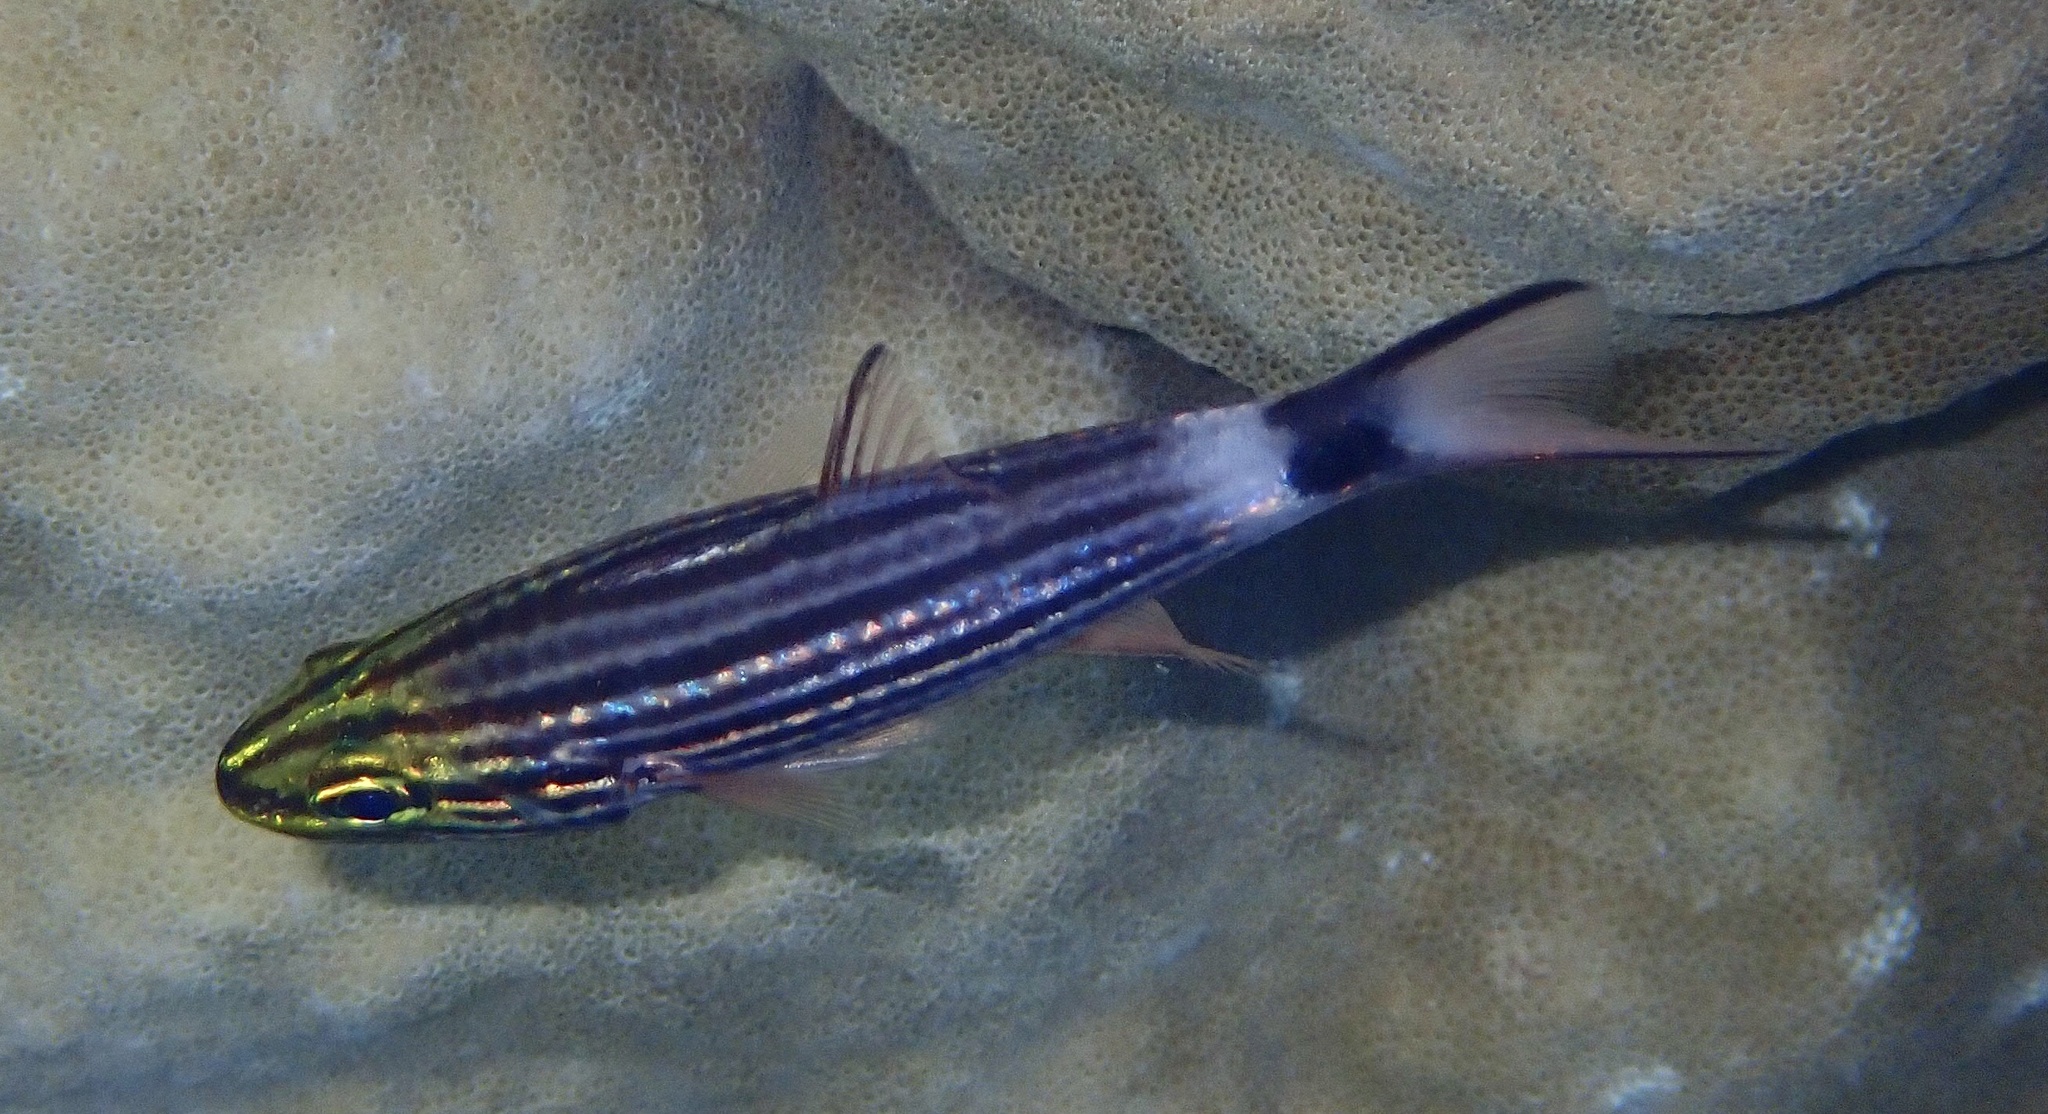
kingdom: Animalia
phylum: Chordata
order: Perciformes
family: Apogonidae
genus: Cheilodipterus
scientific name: Cheilodipterus macrodon
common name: Eight-lined cardinalfish
